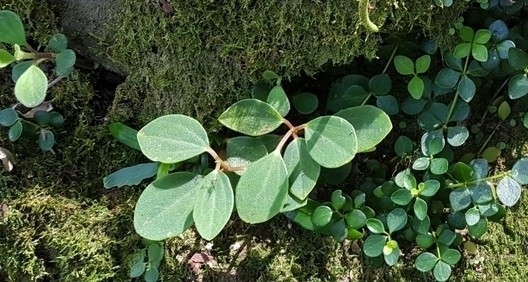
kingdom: Plantae
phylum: Tracheophyta
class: Magnoliopsida
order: Piperales
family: Piperaceae
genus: Peperomia
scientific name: Peperomia leptostachya
